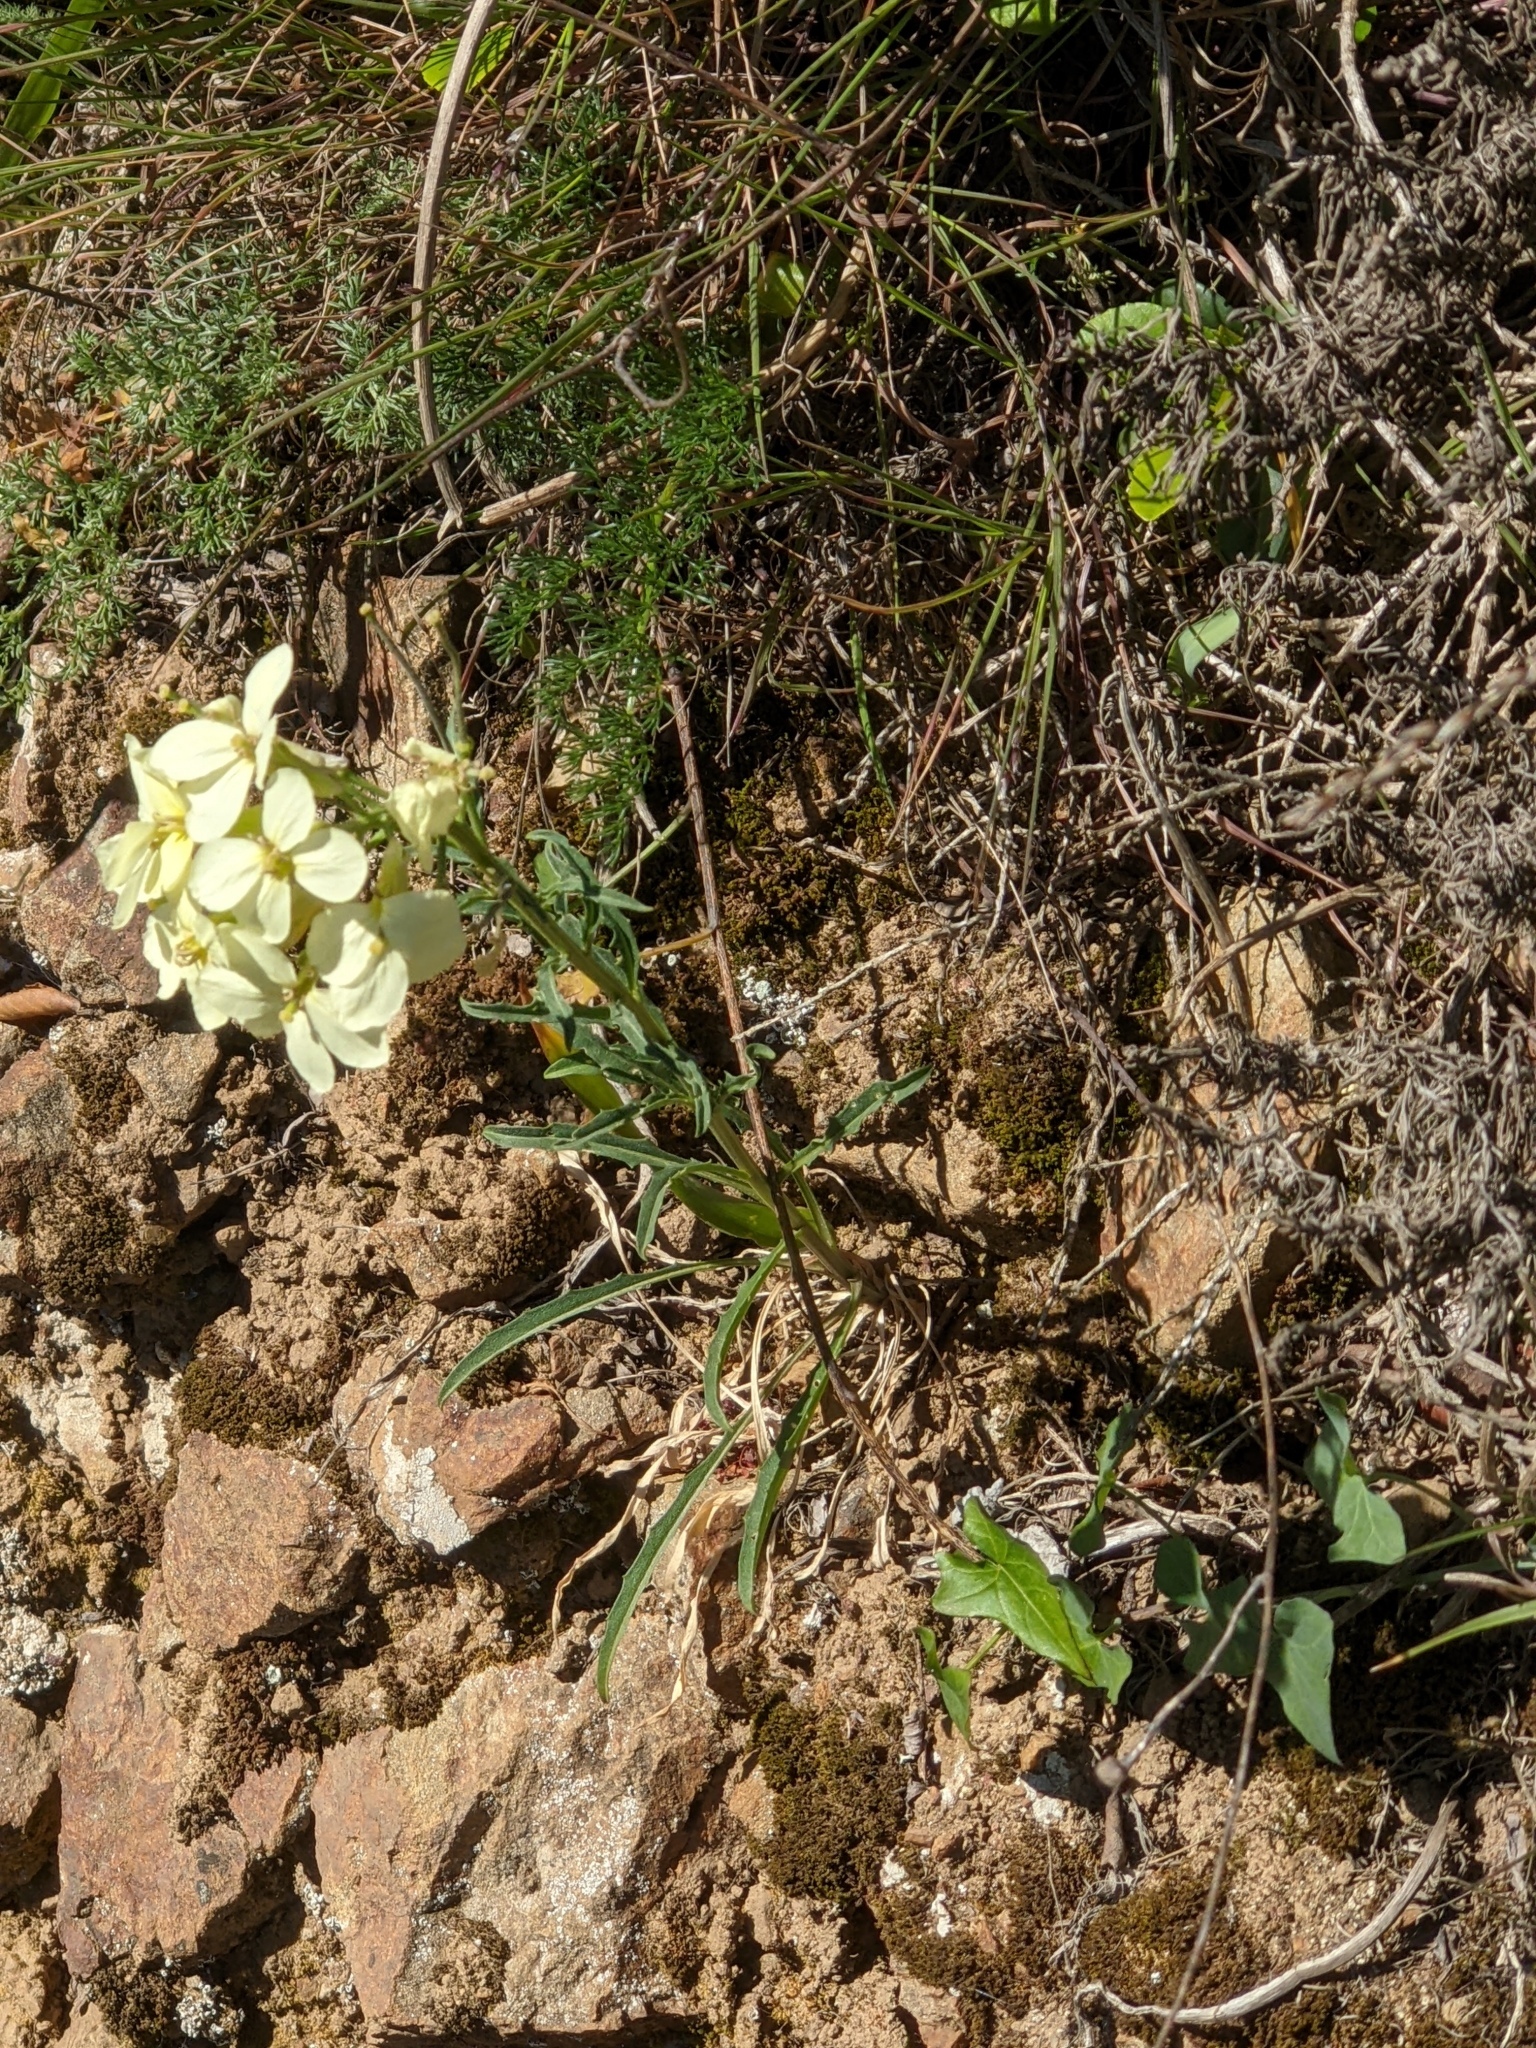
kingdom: Plantae
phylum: Tracheophyta
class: Magnoliopsida
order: Brassicales
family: Brassicaceae
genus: Erysimum
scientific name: Erysimum franciscanum
